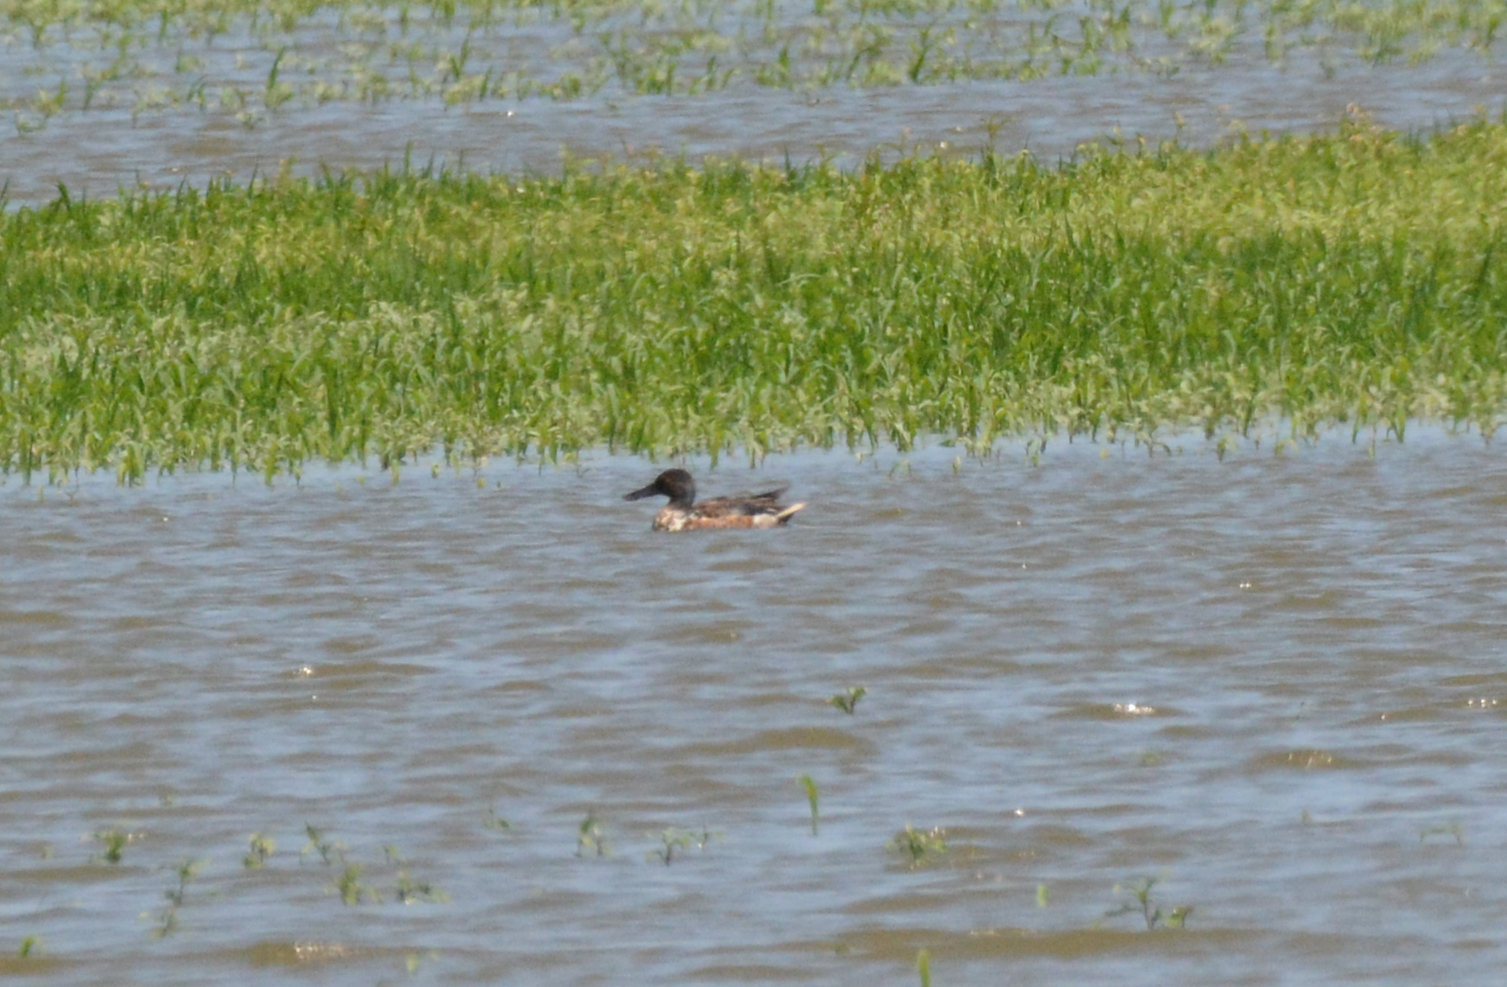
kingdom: Animalia
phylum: Chordata
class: Aves
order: Anseriformes
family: Anatidae
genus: Spatula
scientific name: Spatula clypeata
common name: Northern shoveler
